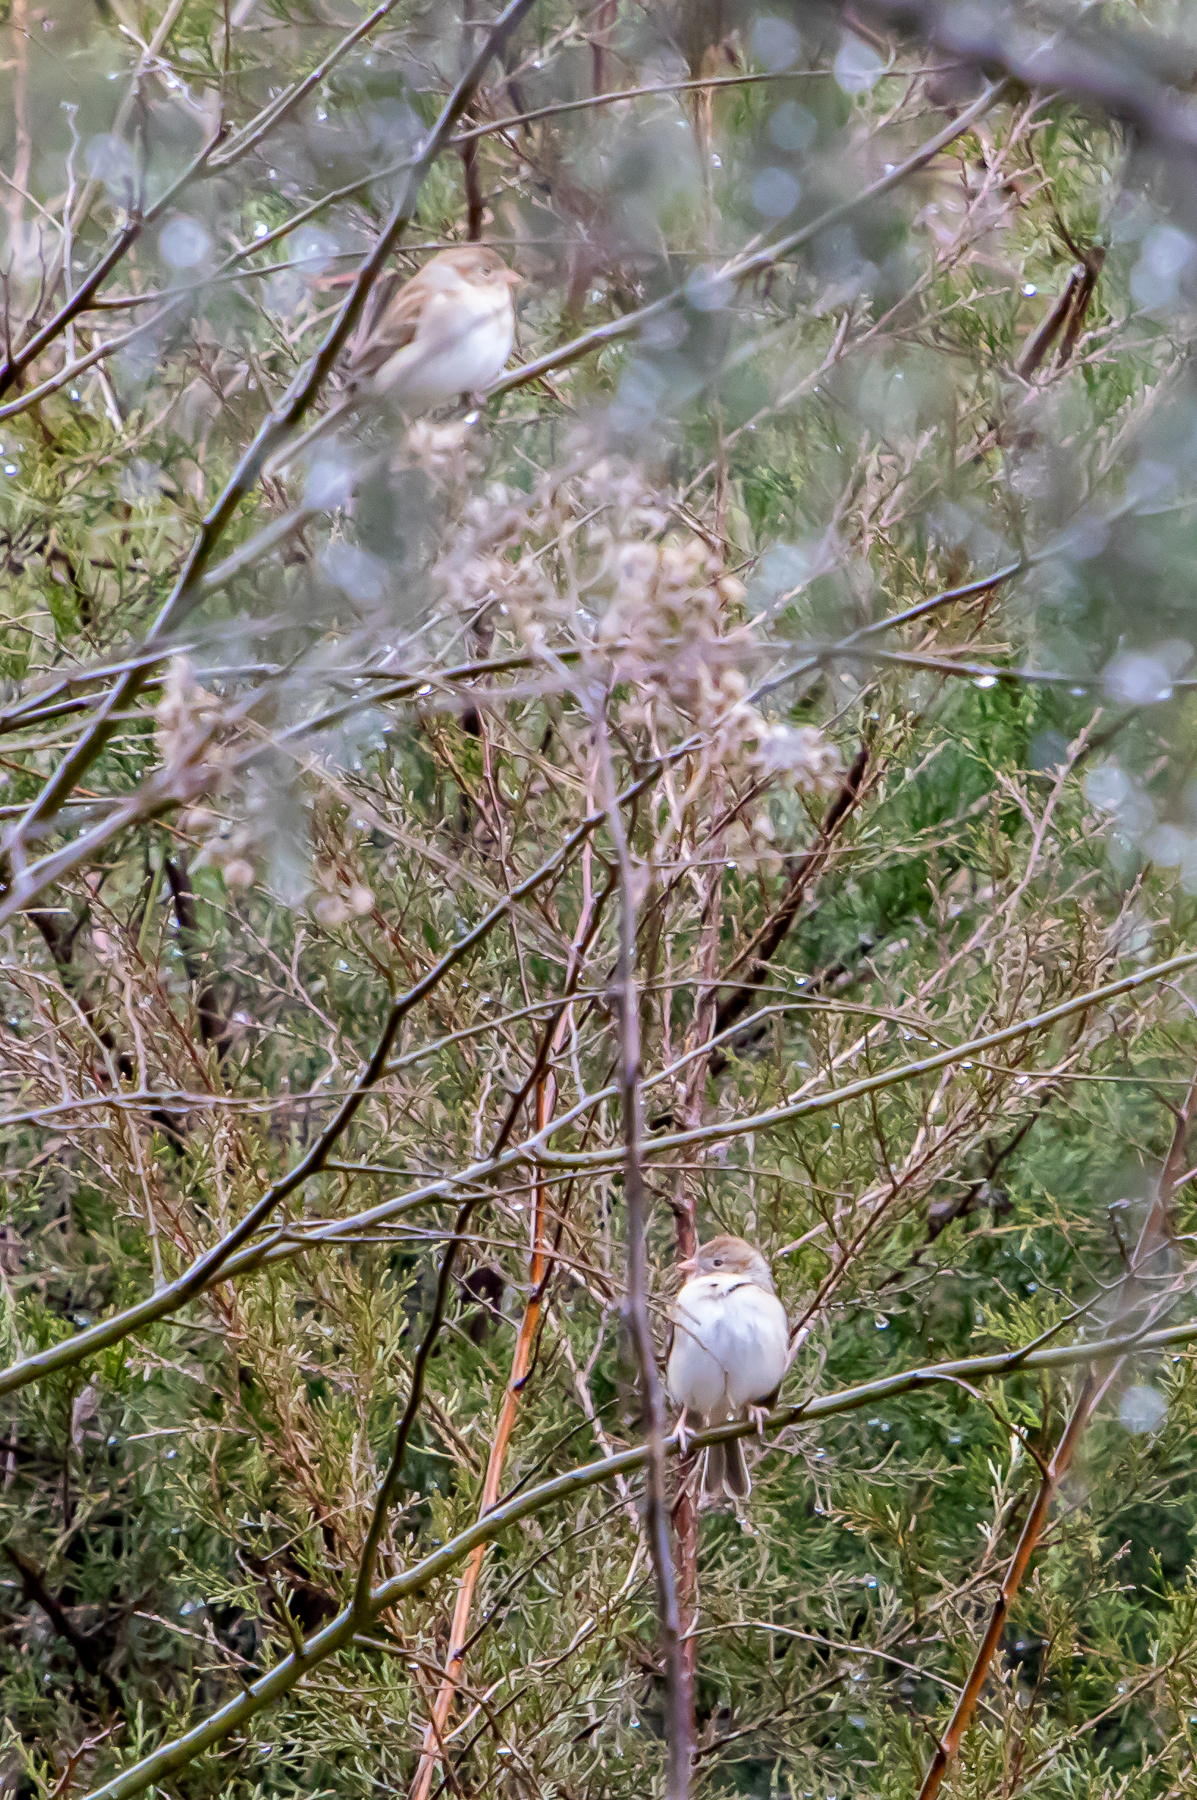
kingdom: Animalia
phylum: Chordata
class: Aves
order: Passeriformes
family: Passerellidae
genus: Spizella
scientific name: Spizella pusilla
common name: Field sparrow
